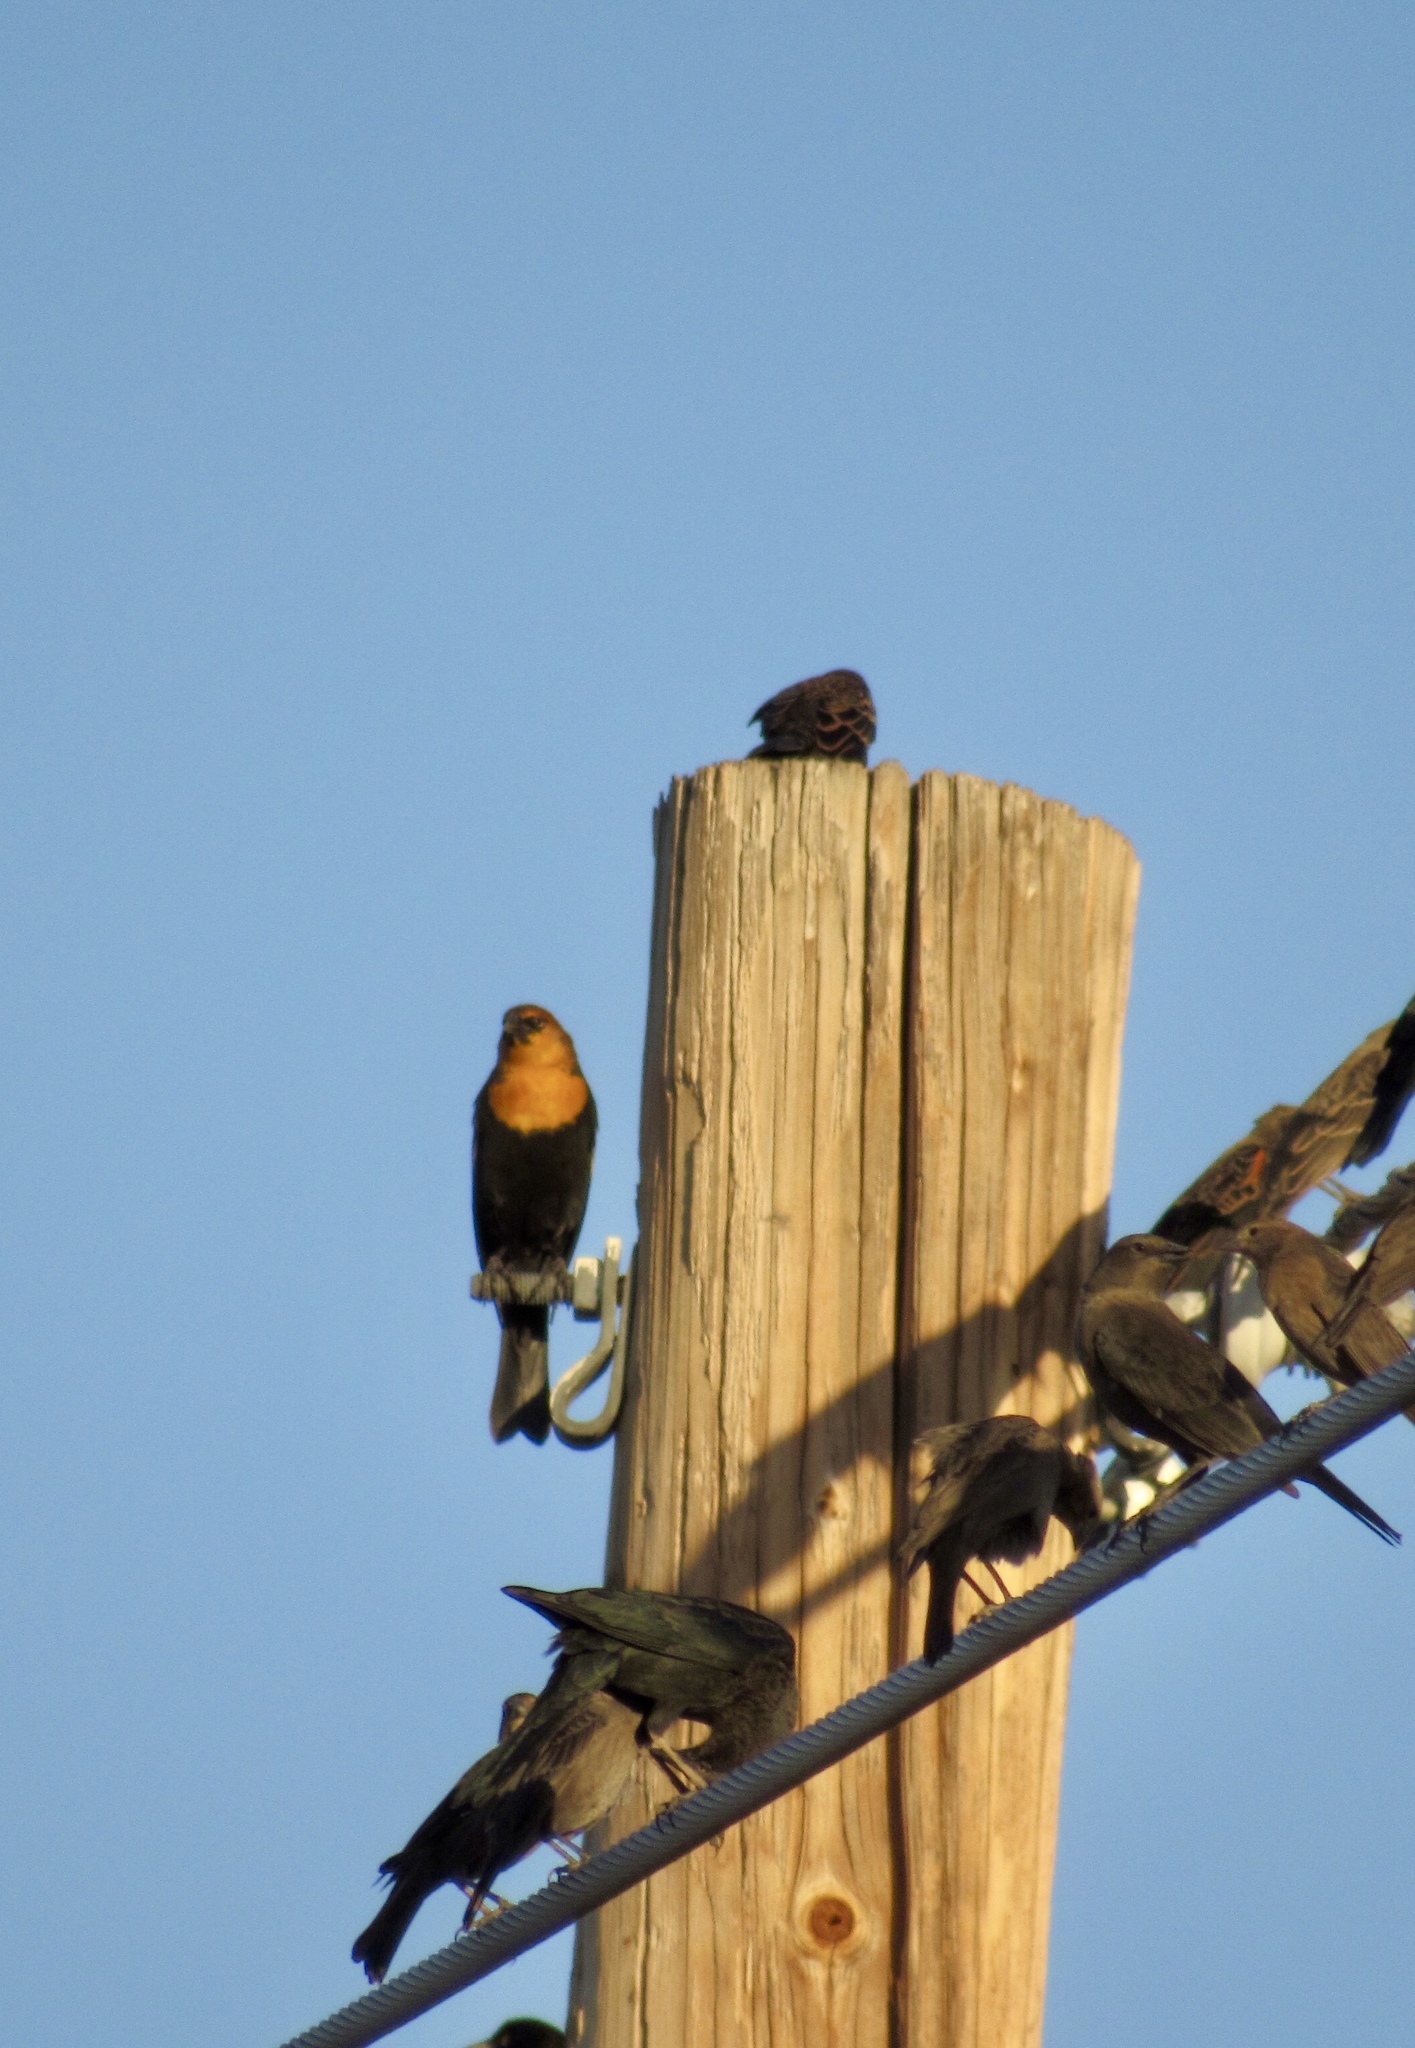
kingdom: Animalia
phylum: Chordata
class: Aves
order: Passeriformes
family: Icteridae
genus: Xanthocephalus
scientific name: Xanthocephalus xanthocephalus
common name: Yellow-headed blackbird
